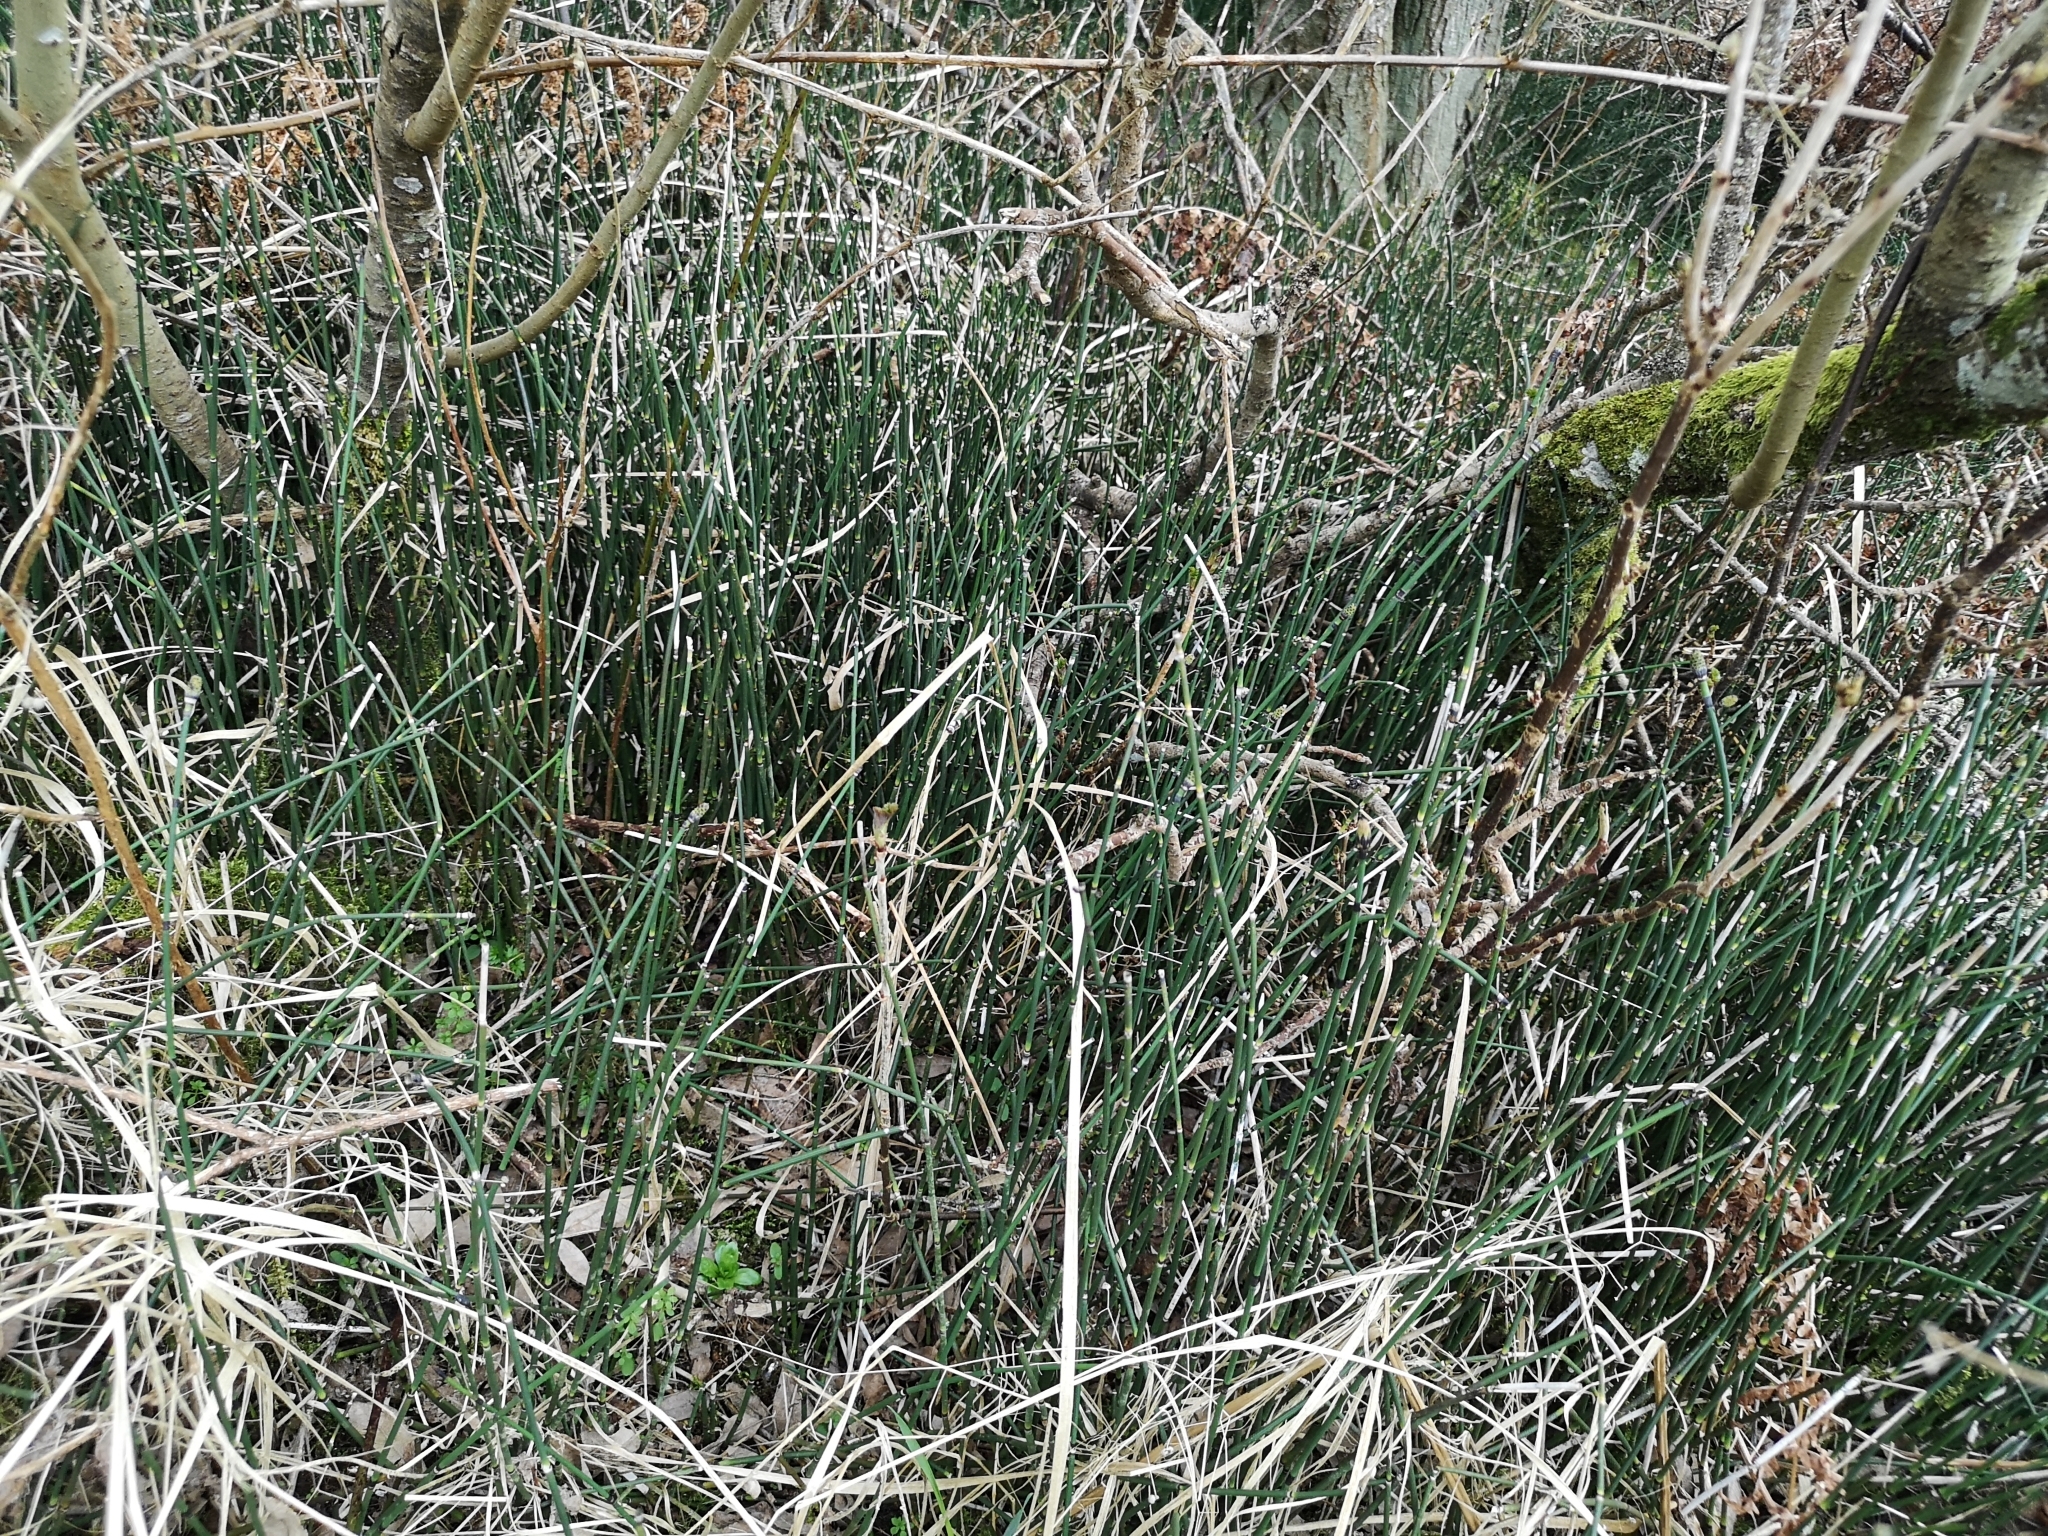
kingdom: Plantae
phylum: Tracheophyta
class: Polypodiopsida
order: Equisetales
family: Equisetaceae
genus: Equisetum
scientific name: Equisetum hyemale
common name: Rough horsetail
